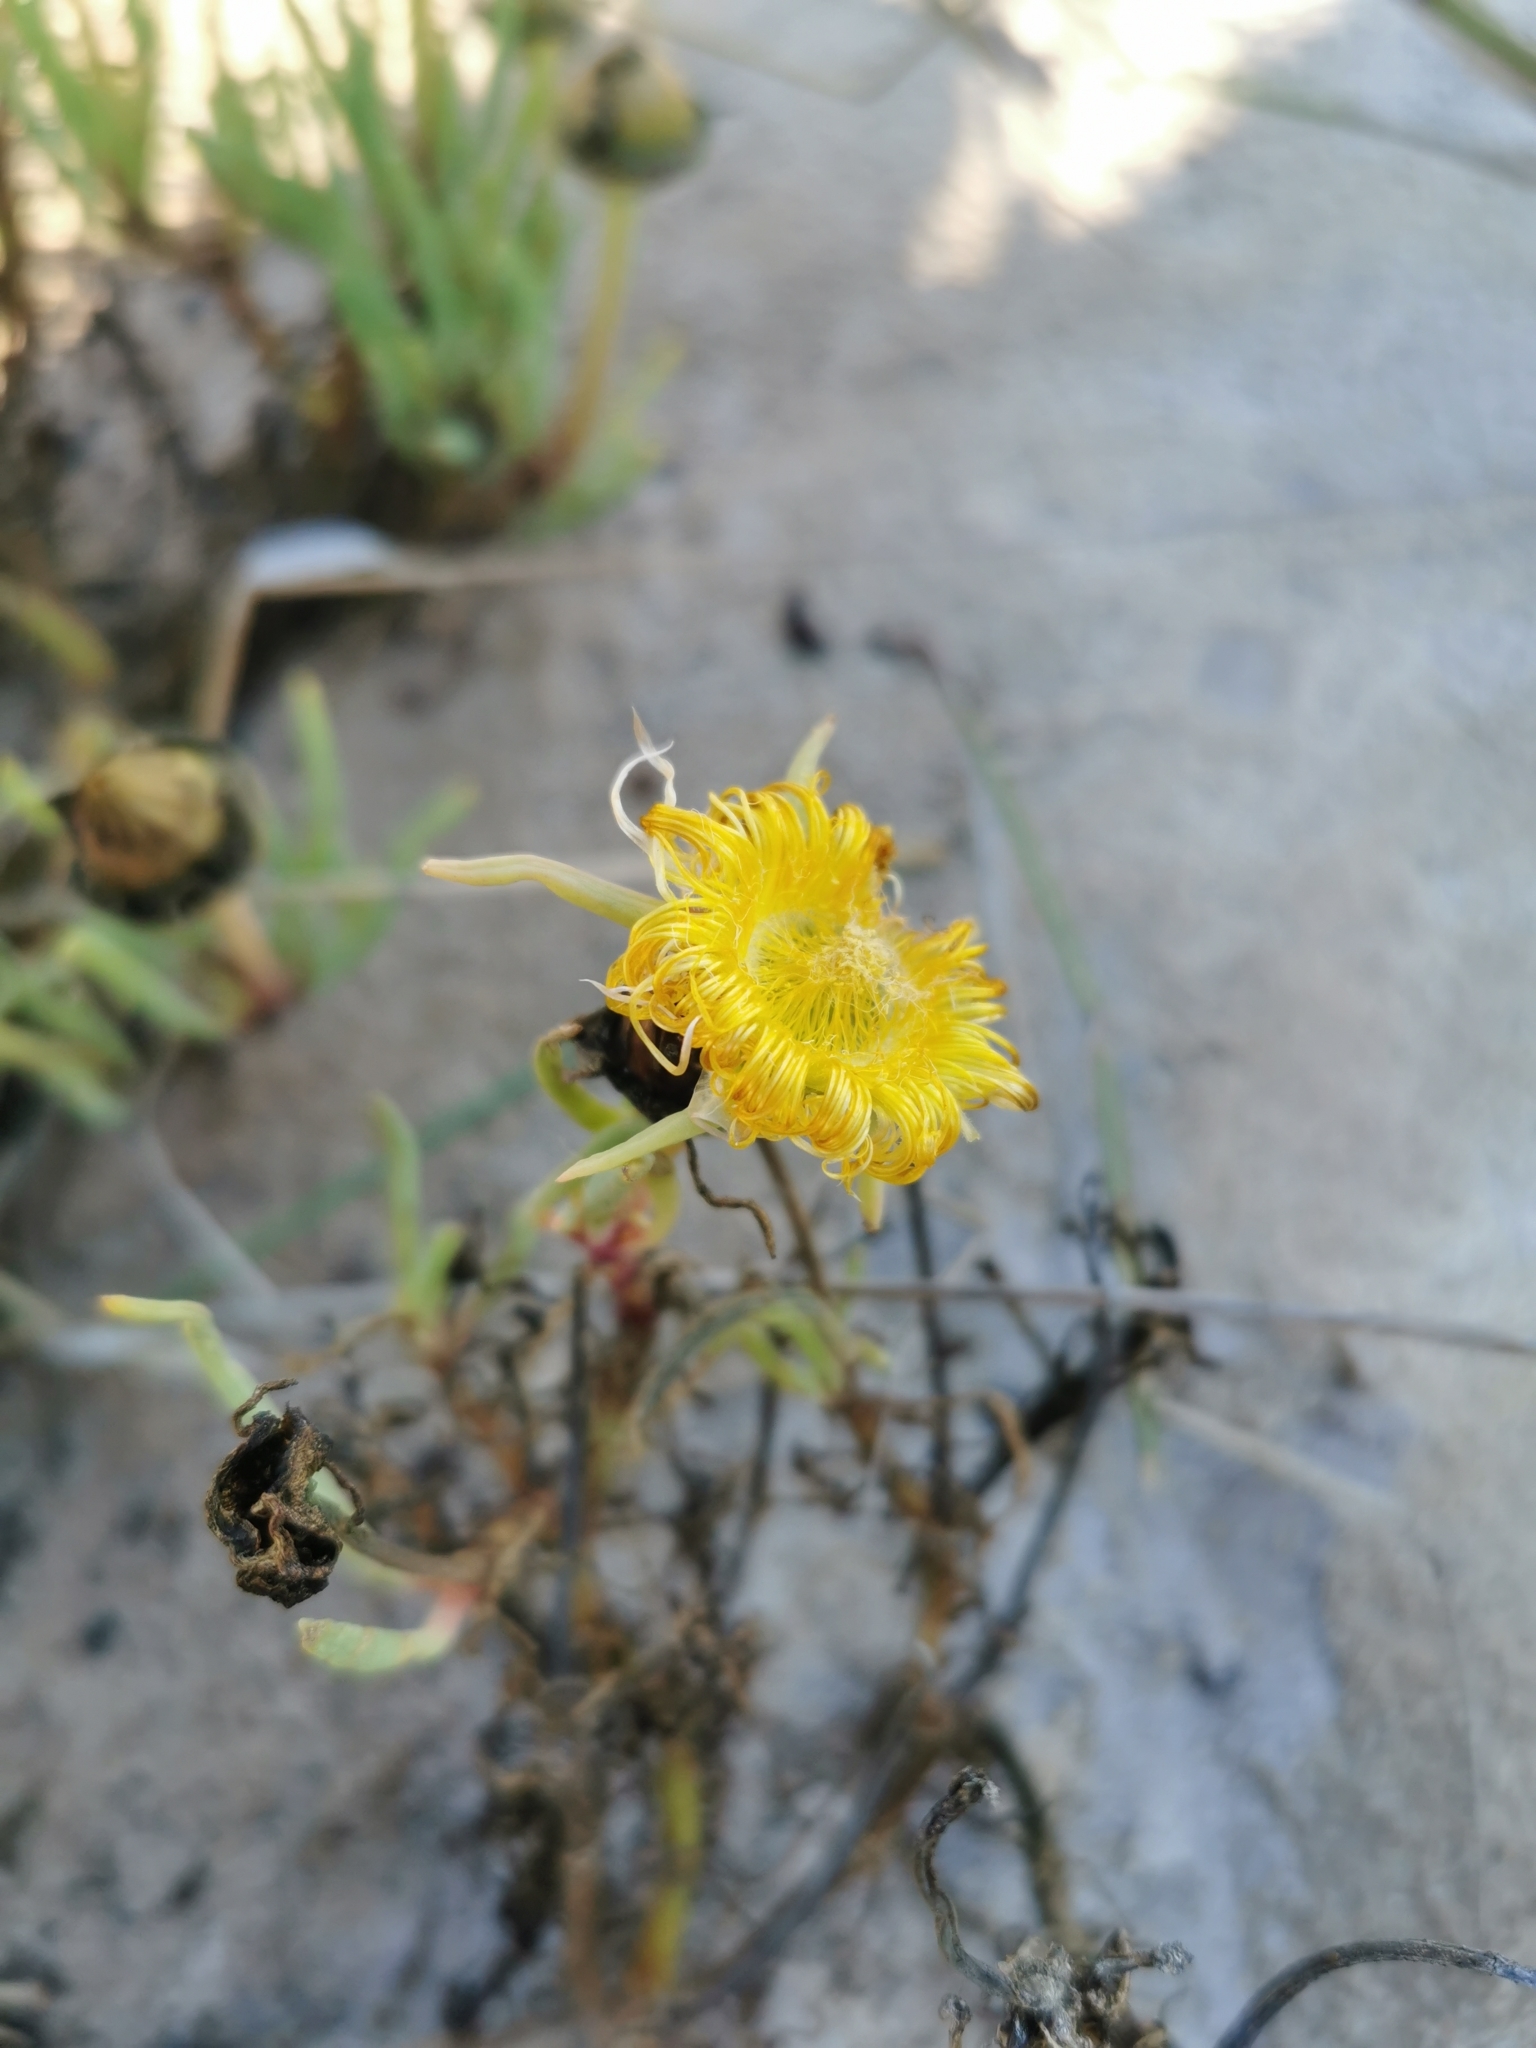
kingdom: Plantae
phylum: Tracheophyta
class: Magnoliopsida
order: Caryophyllales
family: Aizoaceae
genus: Conicosia
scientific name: Conicosia pugioniformis
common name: Narrow-leaved iceplant
